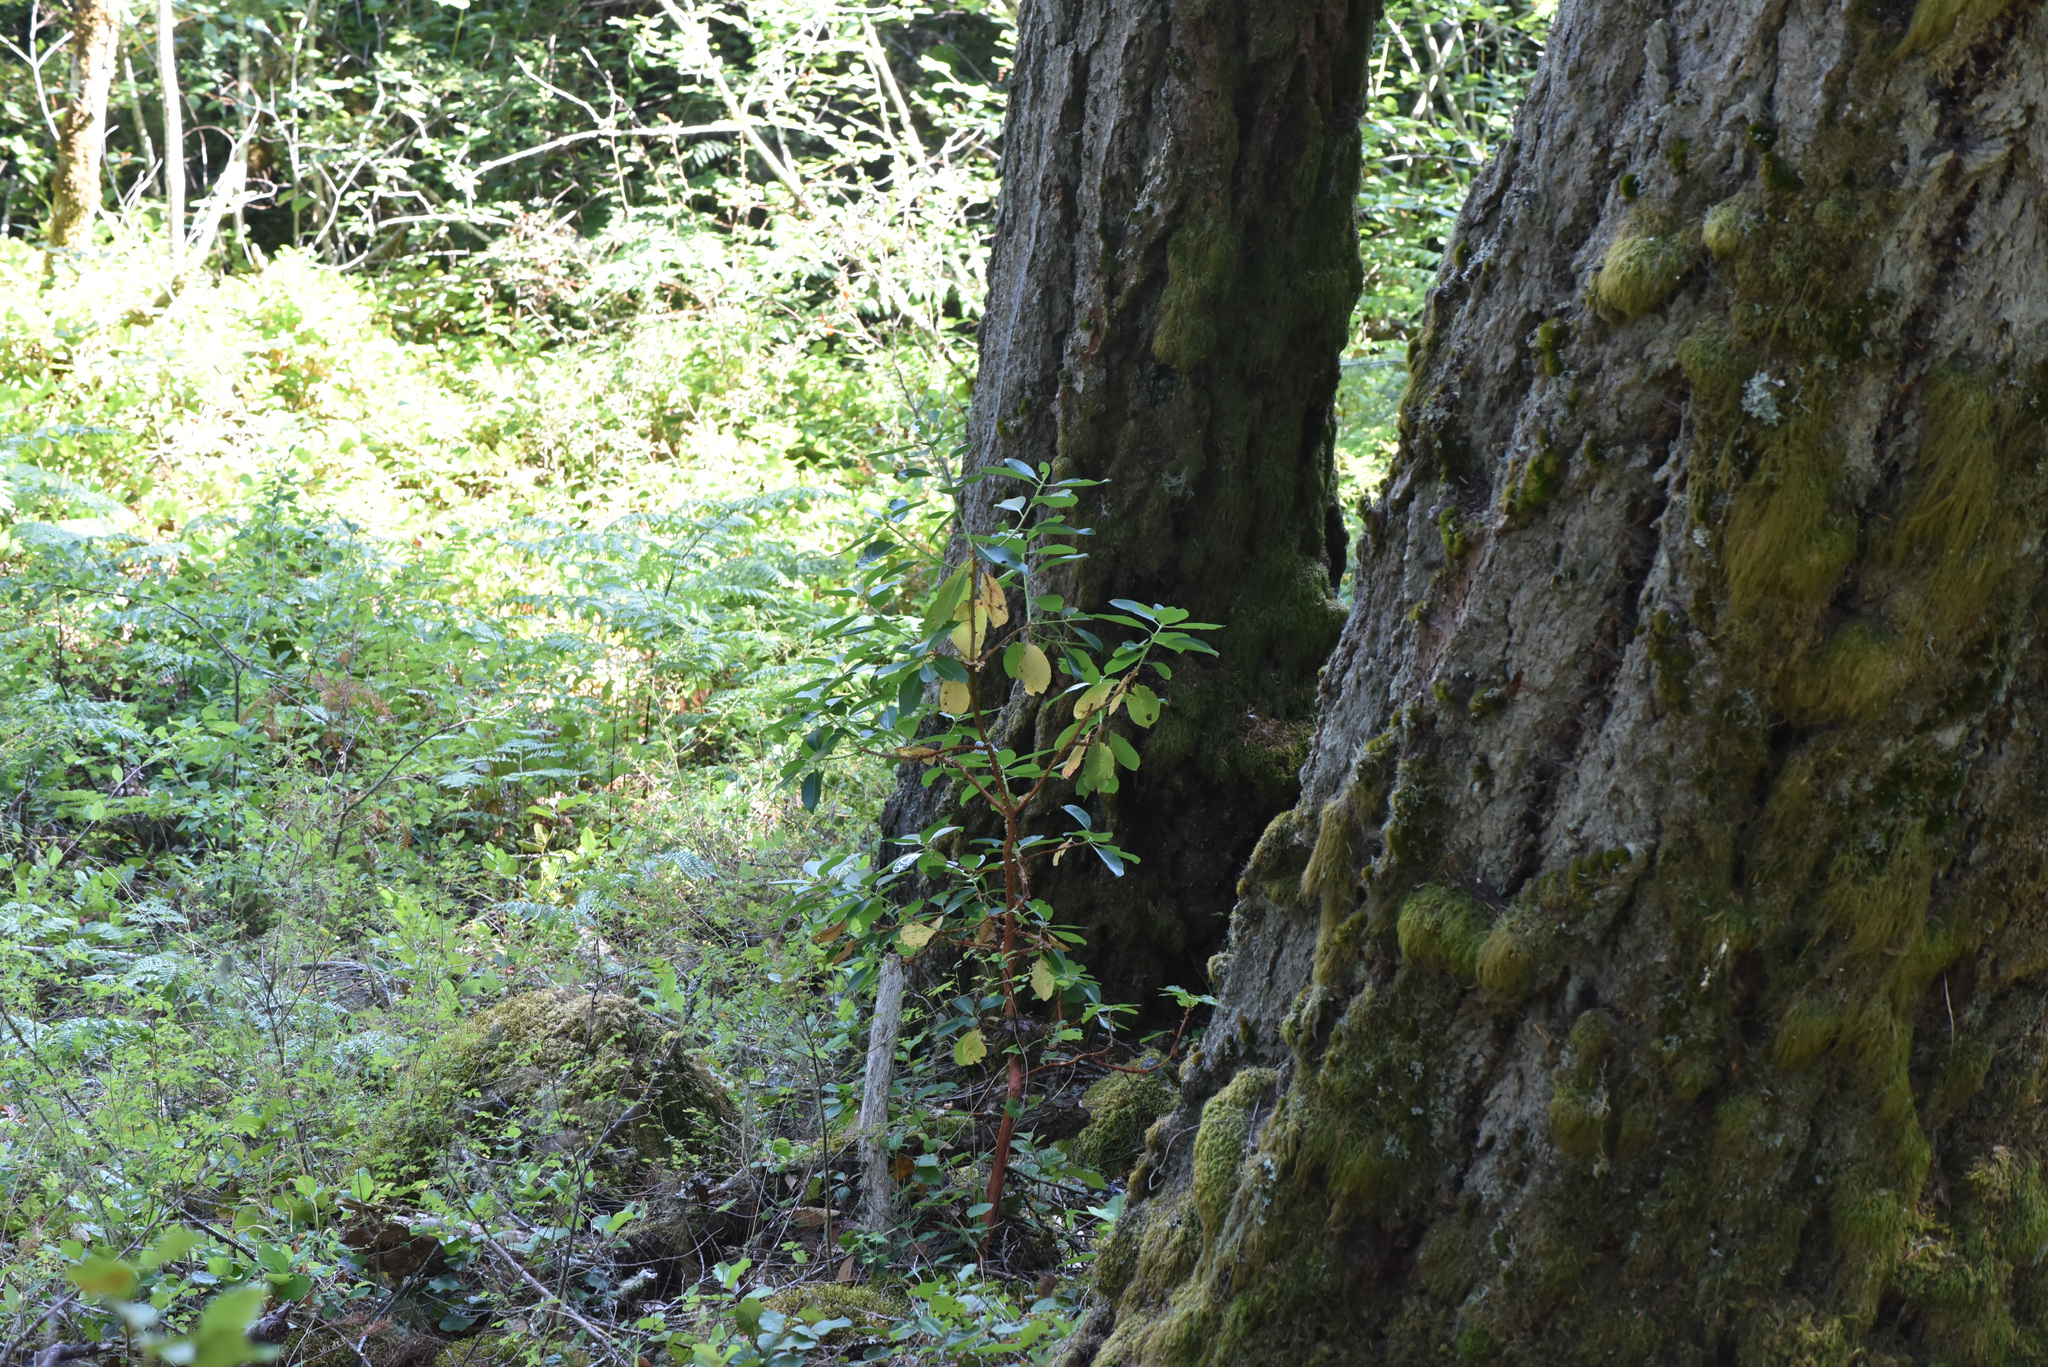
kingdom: Plantae
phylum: Tracheophyta
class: Magnoliopsida
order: Ericales
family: Ericaceae
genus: Arbutus
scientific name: Arbutus menziesii
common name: Pacific madrone
